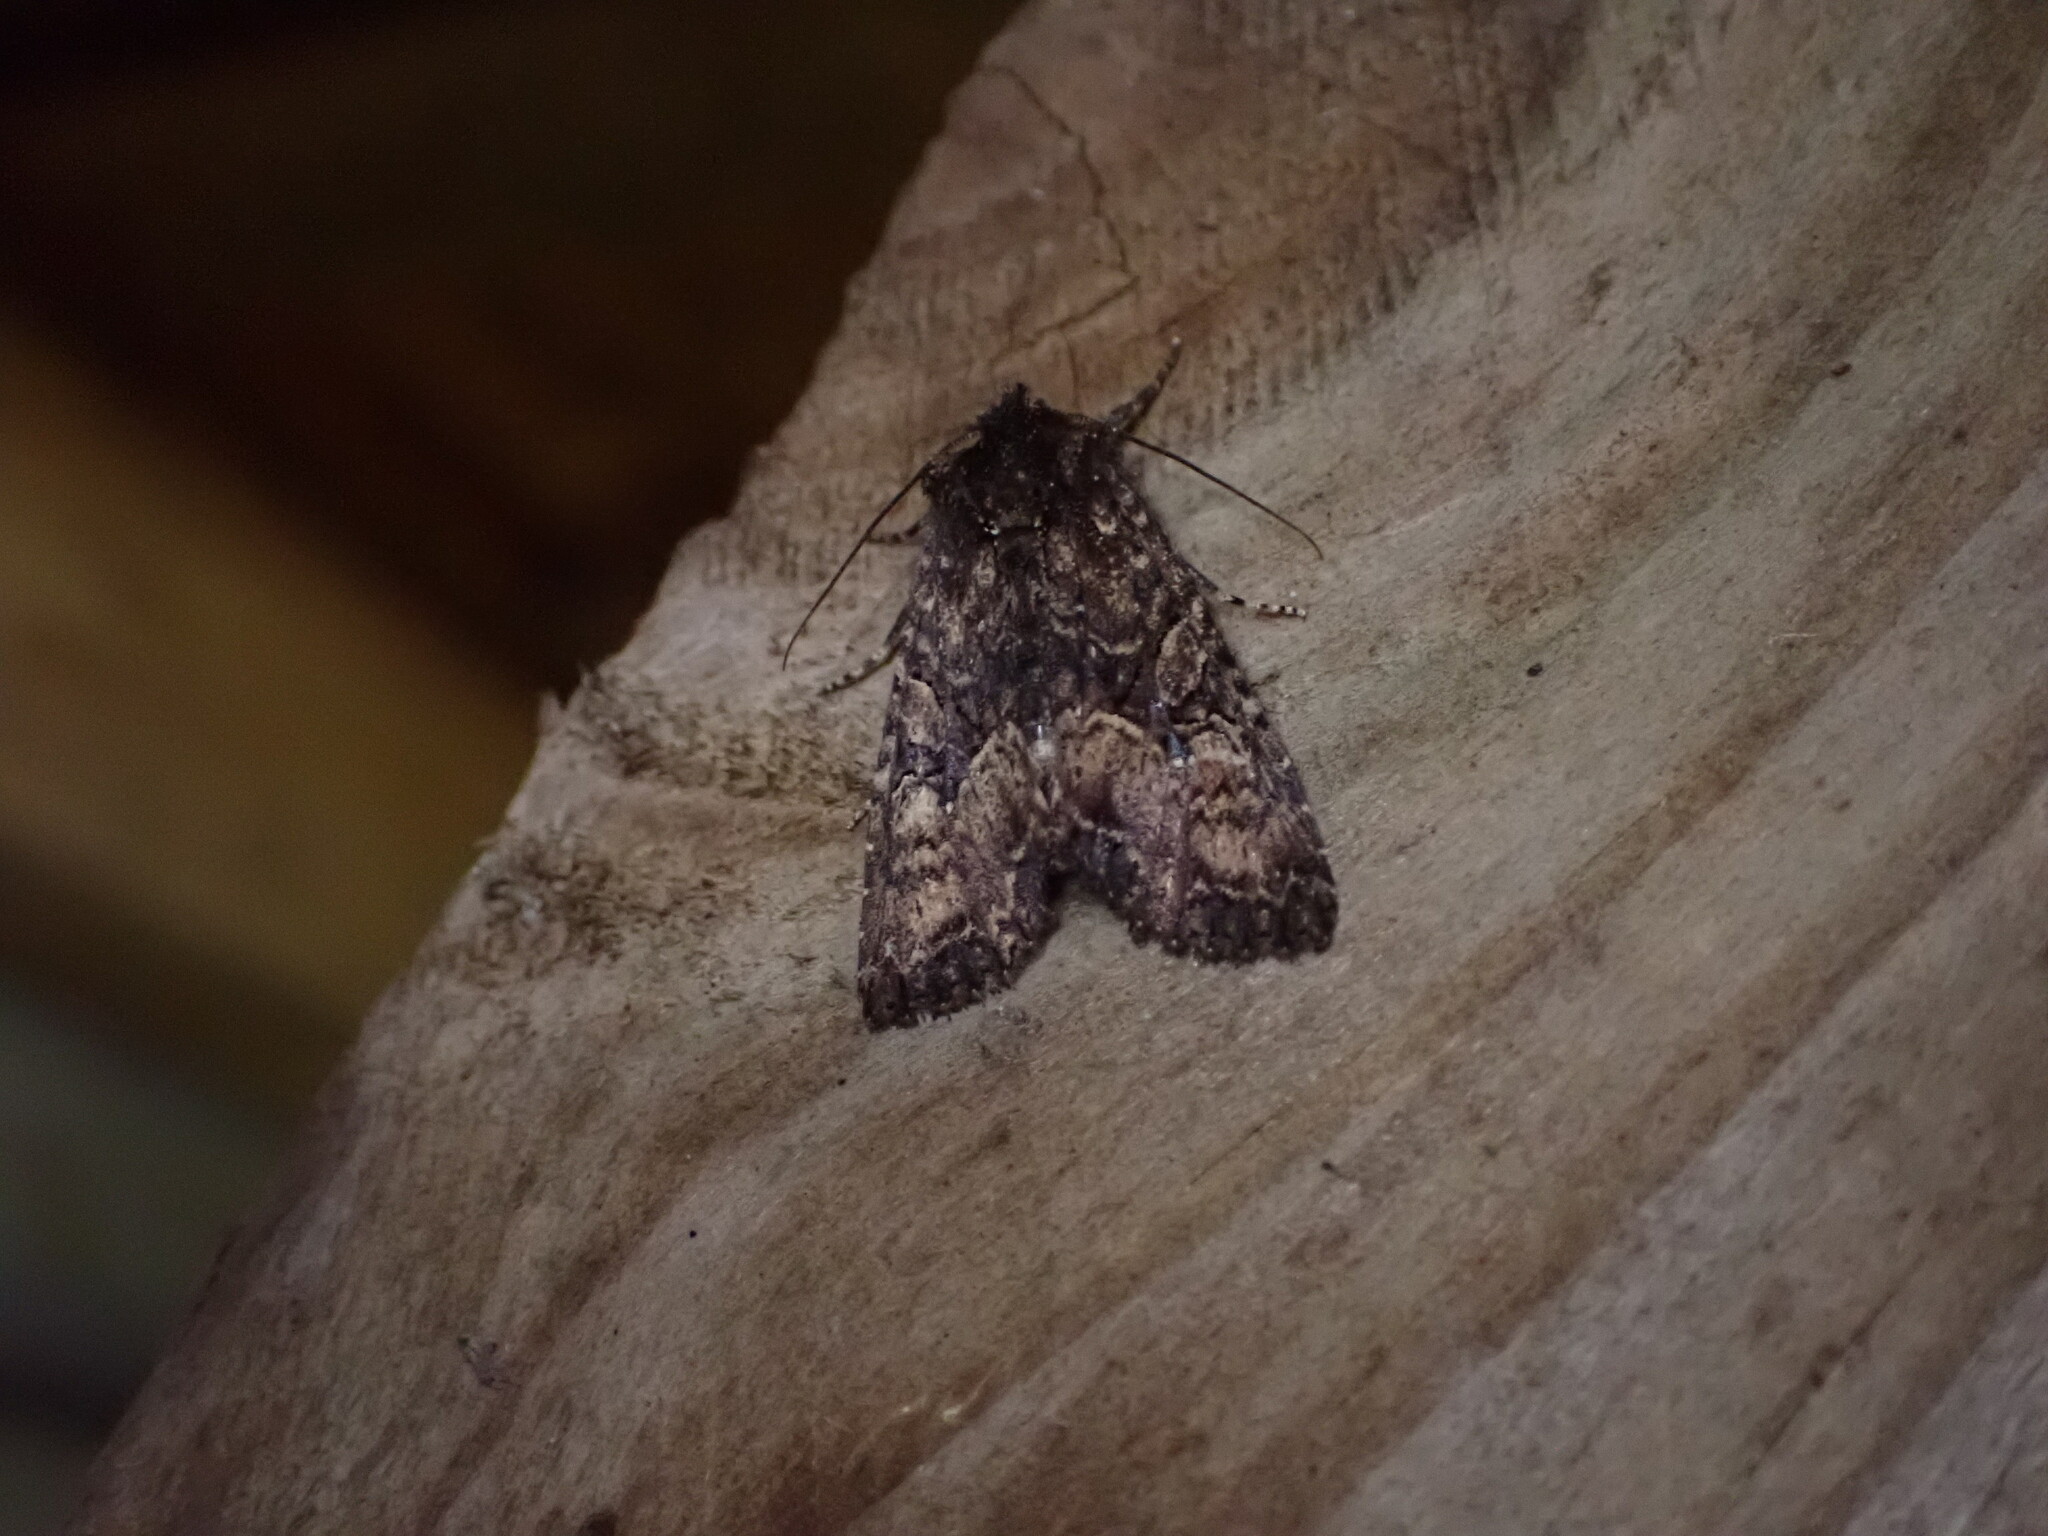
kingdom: Animalia
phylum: Arthropoda
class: Insecta
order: Lepidoptera
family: Noctuidae
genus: Meterana
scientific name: Meterana dotata
